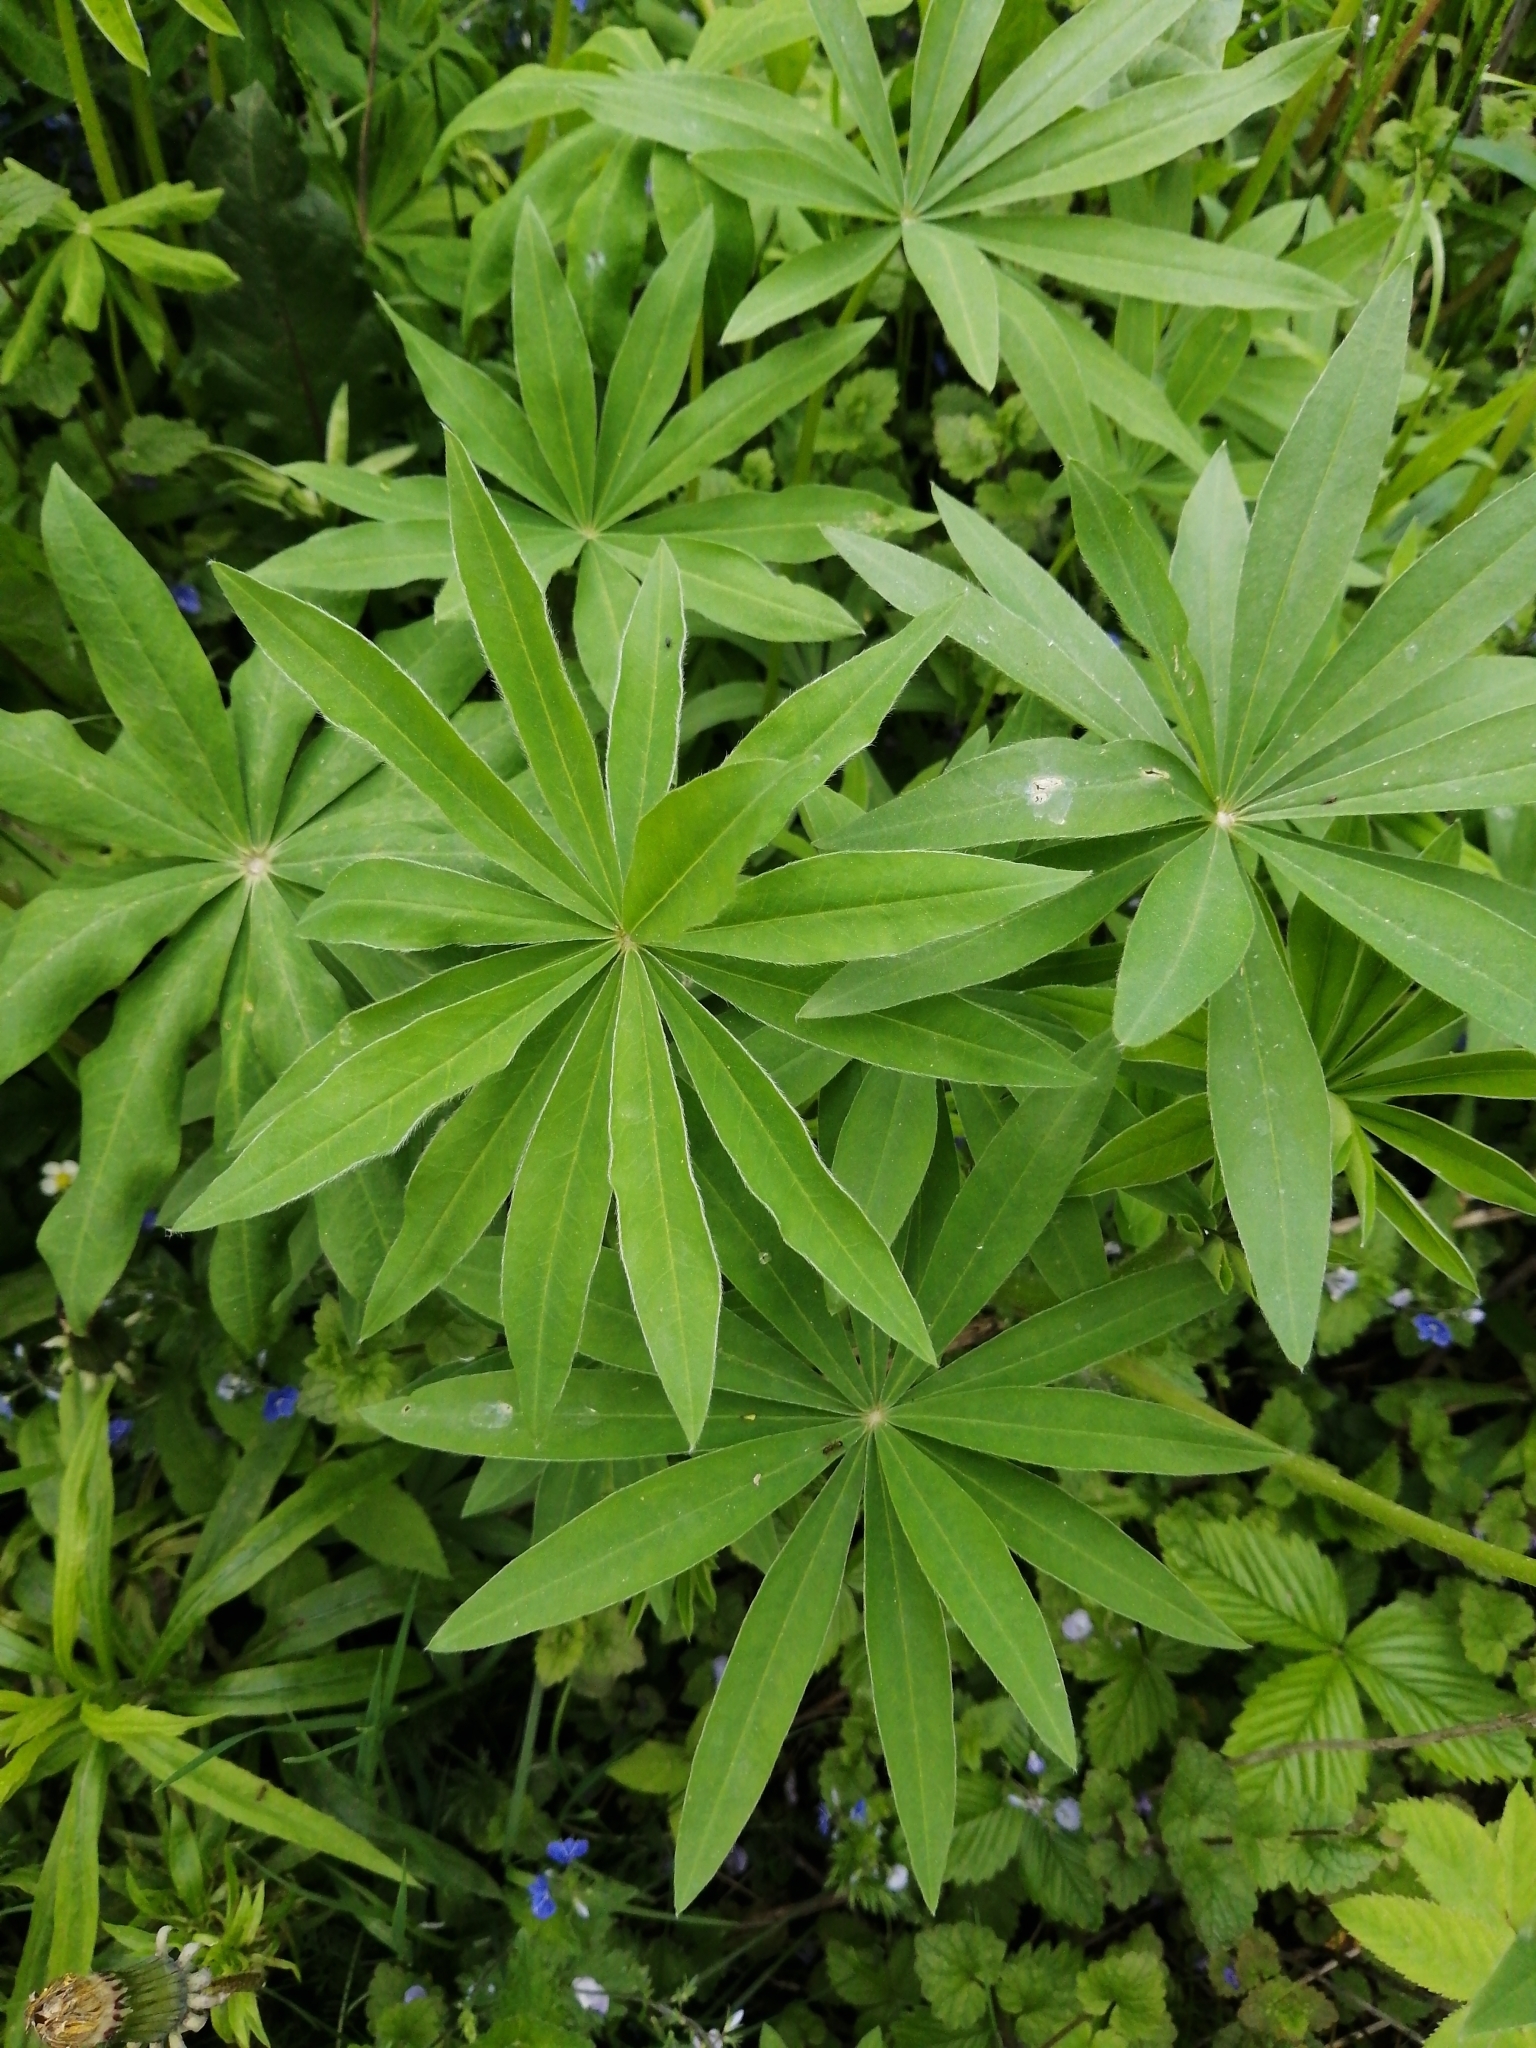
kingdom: Plantae
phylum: Tracheophyta
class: Magnoliopsida
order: Fabales
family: Fabaceae
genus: Lupinus
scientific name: Lupinus polyphyllus
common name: Garden lupin
